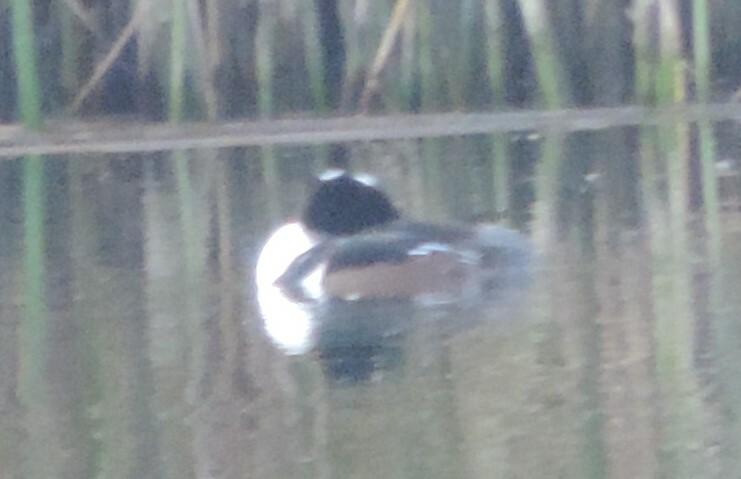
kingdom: Animalia
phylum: Chordata
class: Aves
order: Anseriformes
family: Anatidae
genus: Lophodytes
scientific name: Lophodytes cucullatus
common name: Hooded merganser
